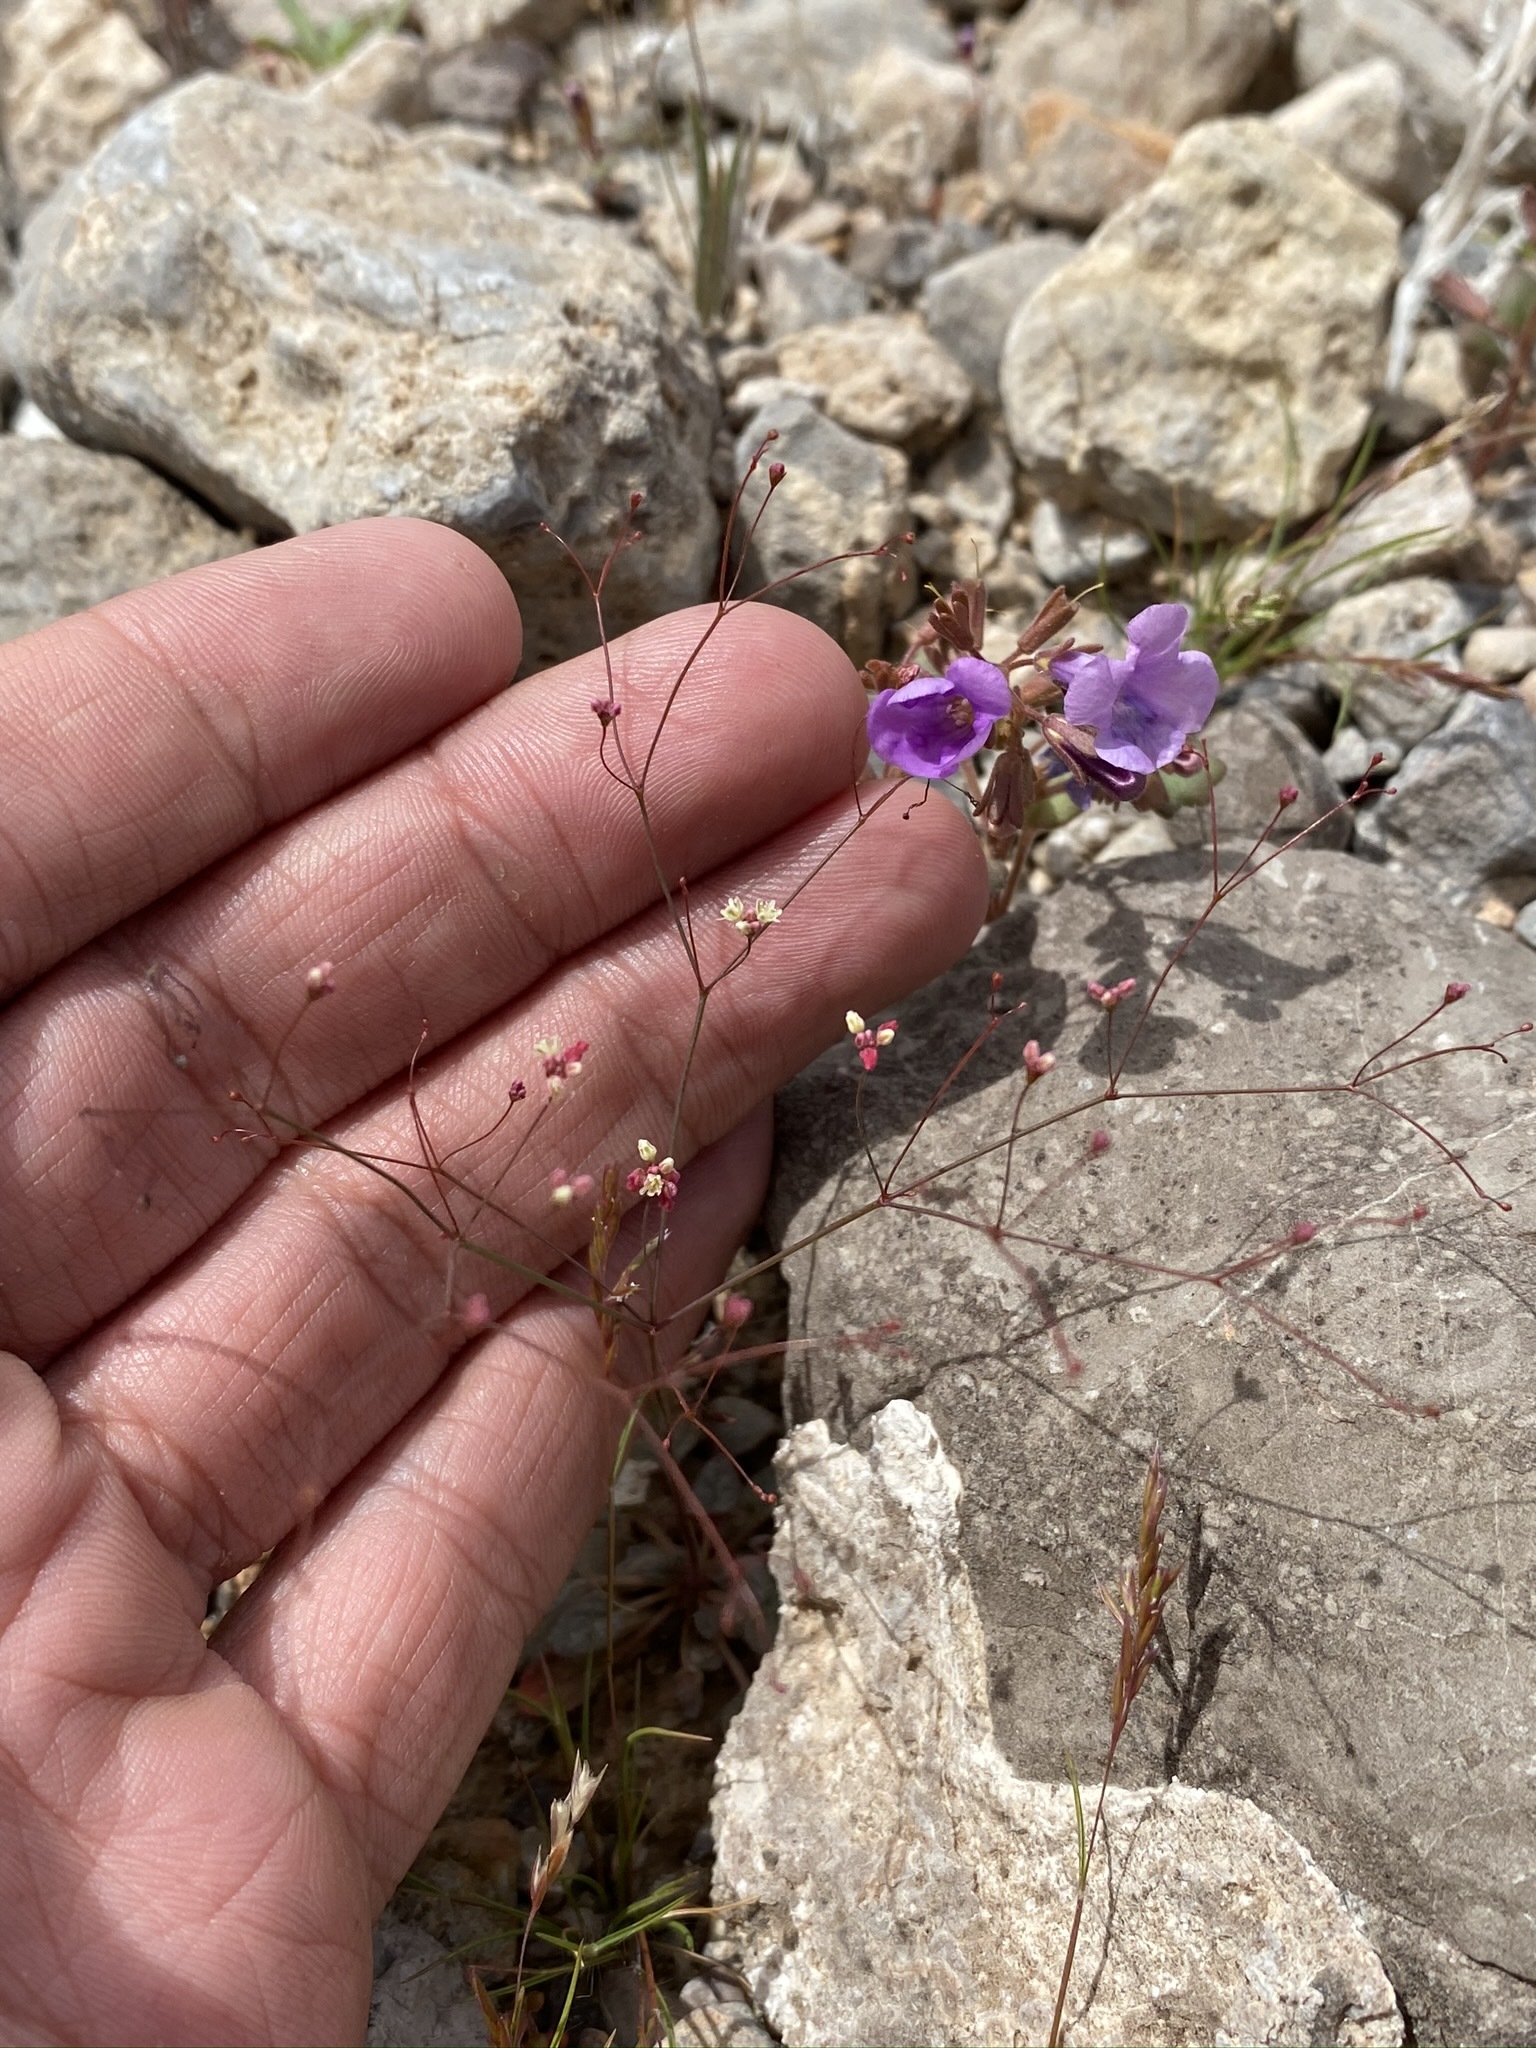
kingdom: Plantae
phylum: Tracheophyta
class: Magnoliopsida
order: Caryophyllales
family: Polygonaceae
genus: Eriogonum
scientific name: Eriogonum thomasii
